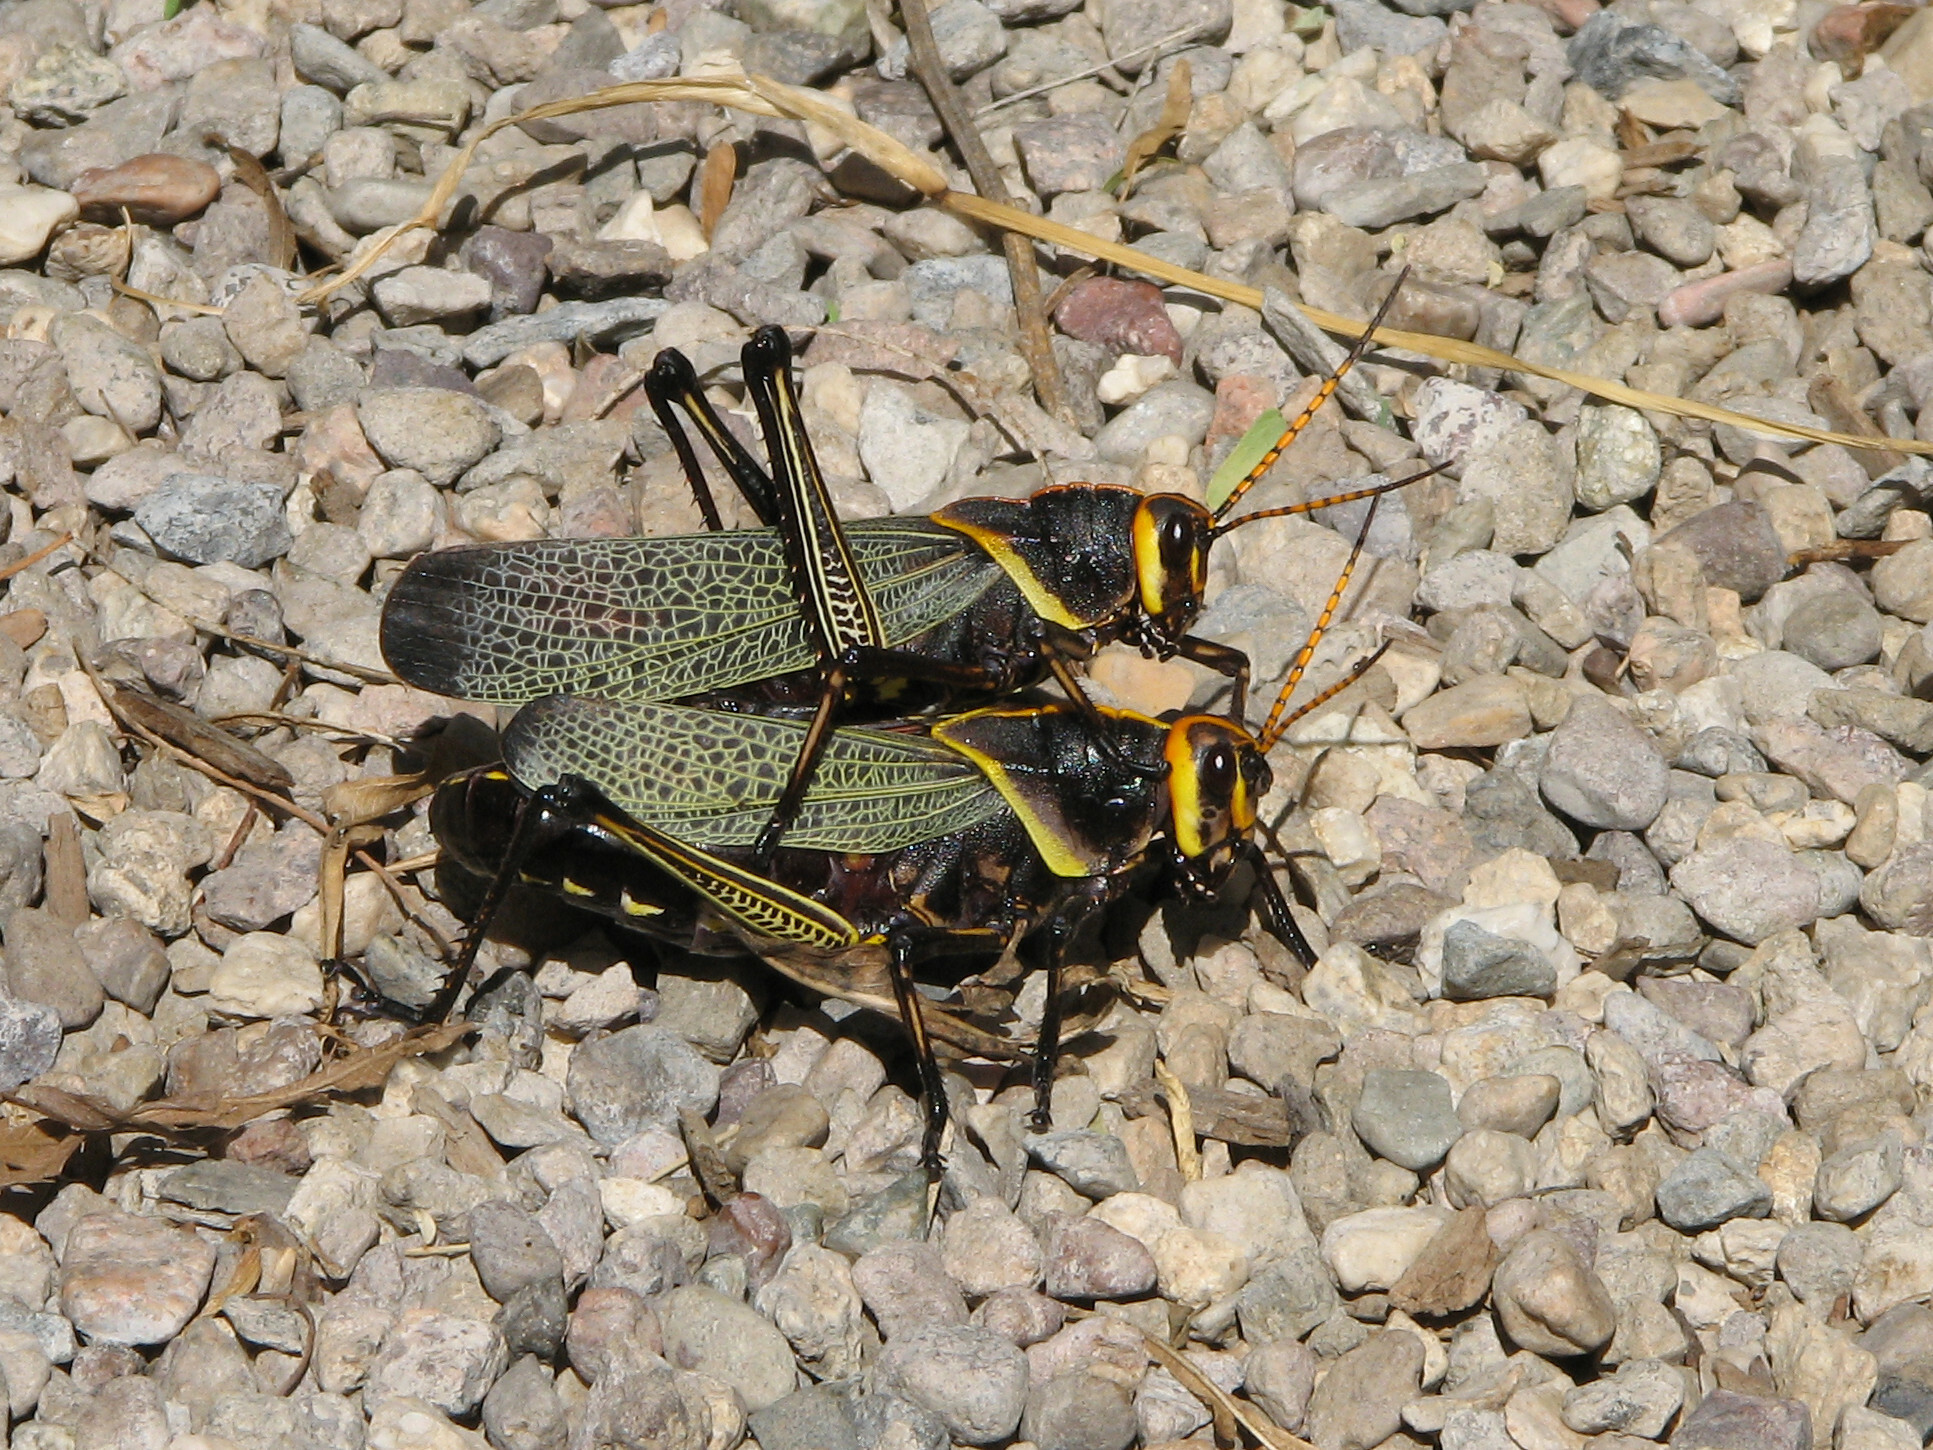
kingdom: Animalia
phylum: Arthropoda
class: Insecta
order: Orthoptera
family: Romaleidae
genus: Romalea
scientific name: Romalea
